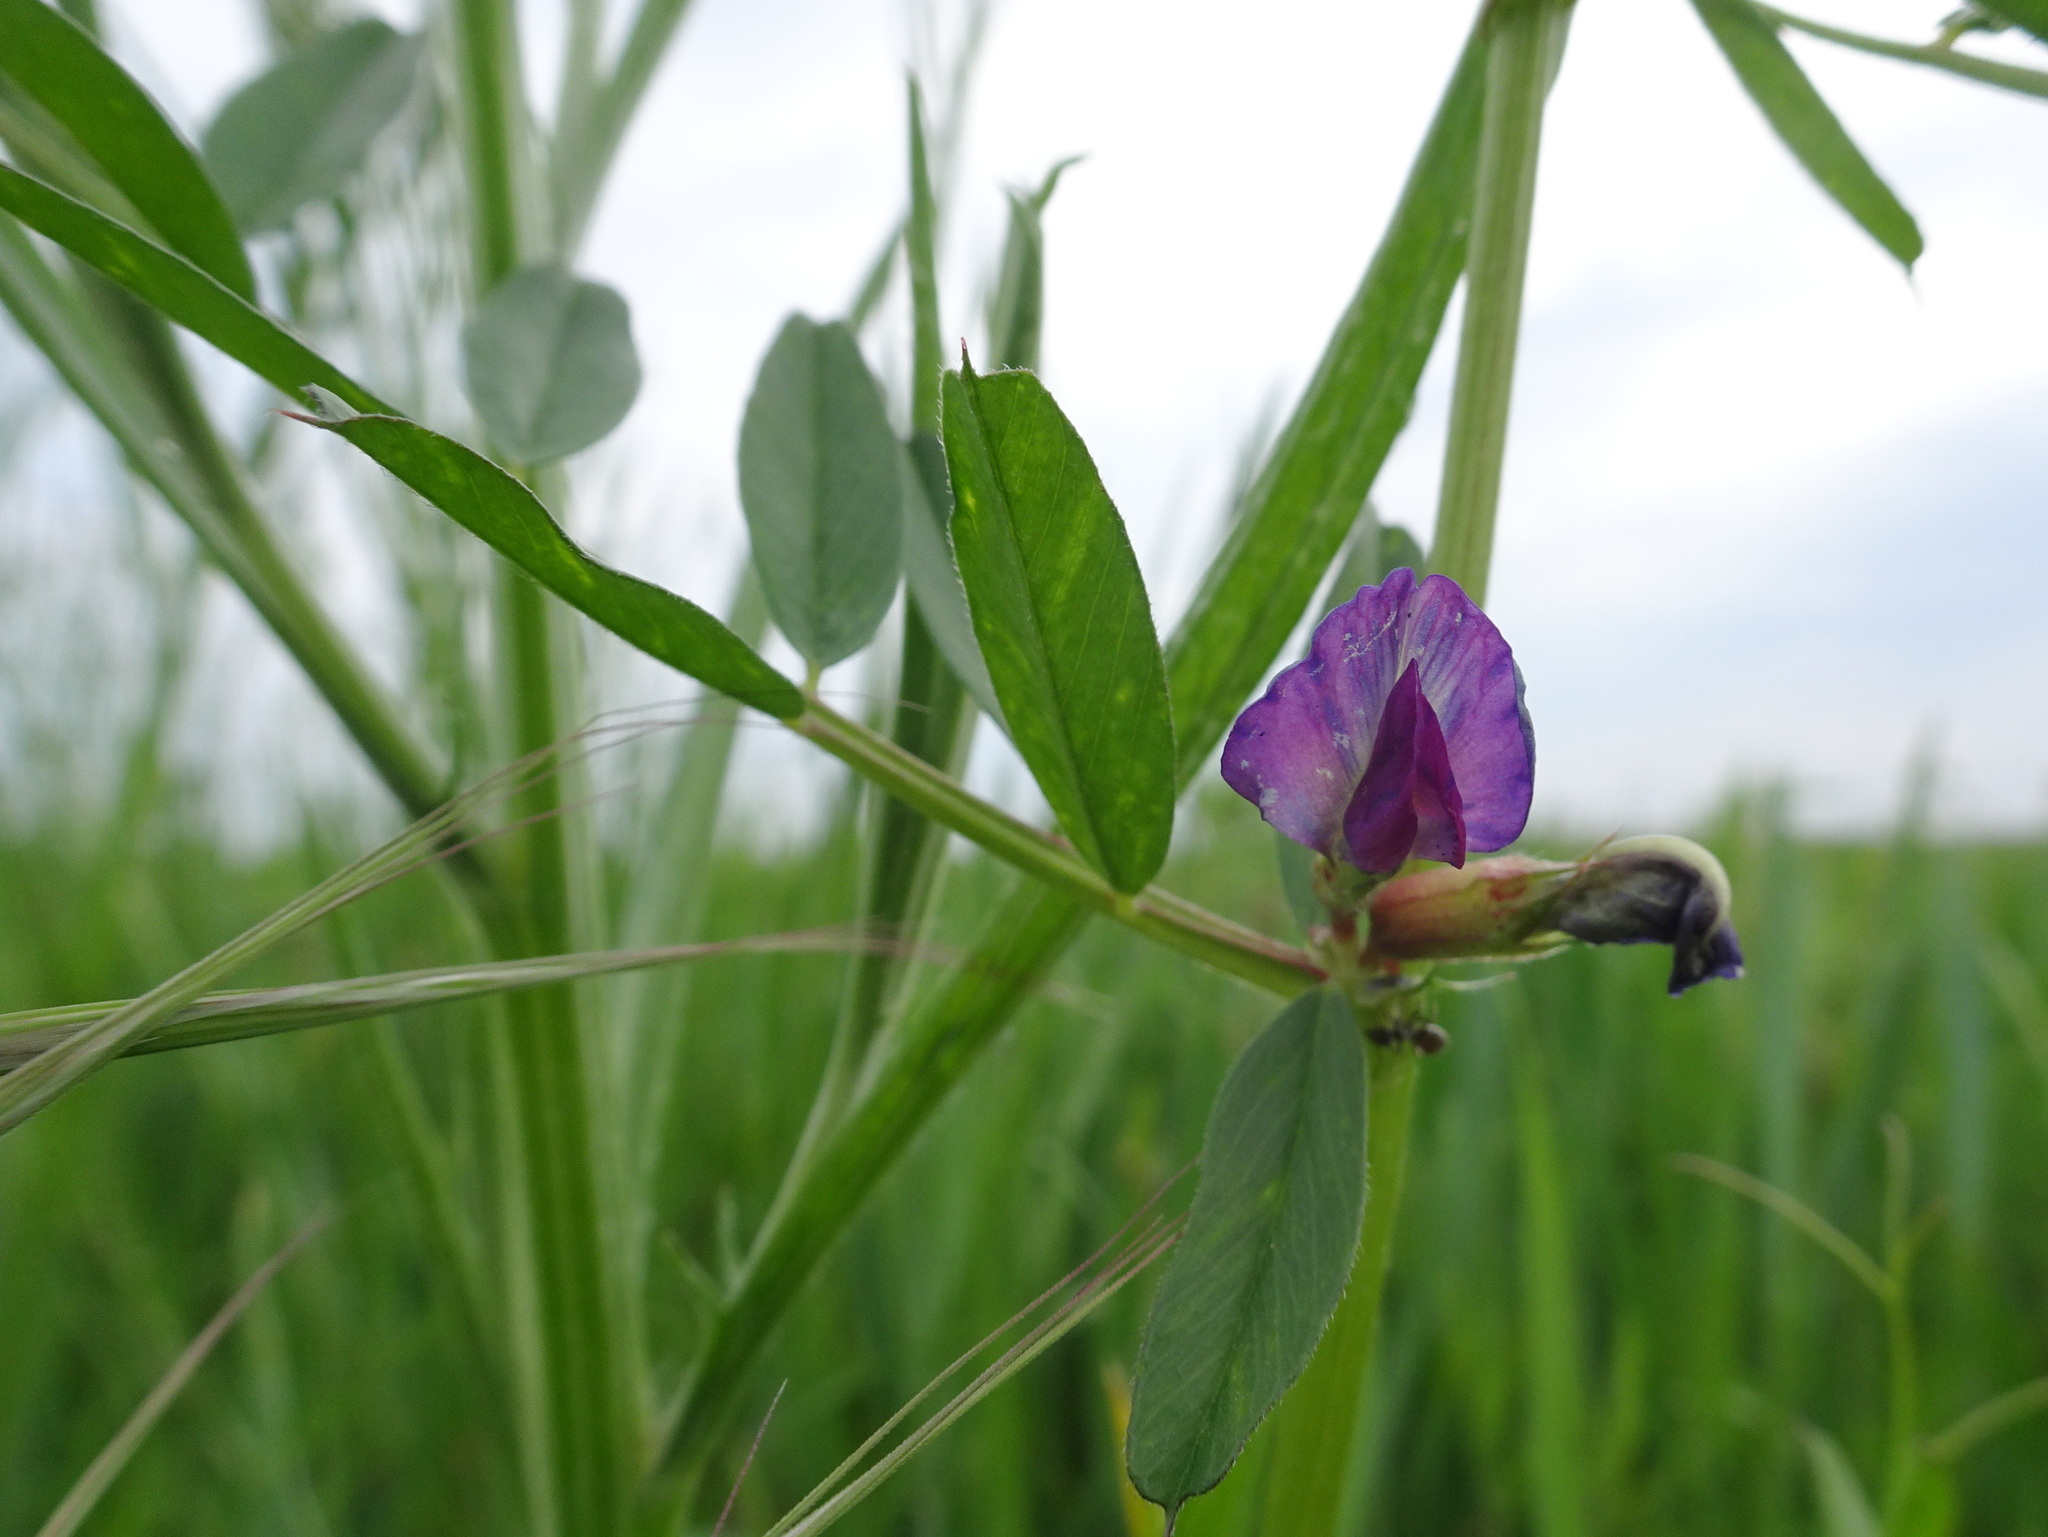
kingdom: Plantae
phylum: Tracheophyta
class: Magnoliopsida
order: Fabales
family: Fabaceae
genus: Vicia
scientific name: Vicia sativa
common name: Garden vetch
